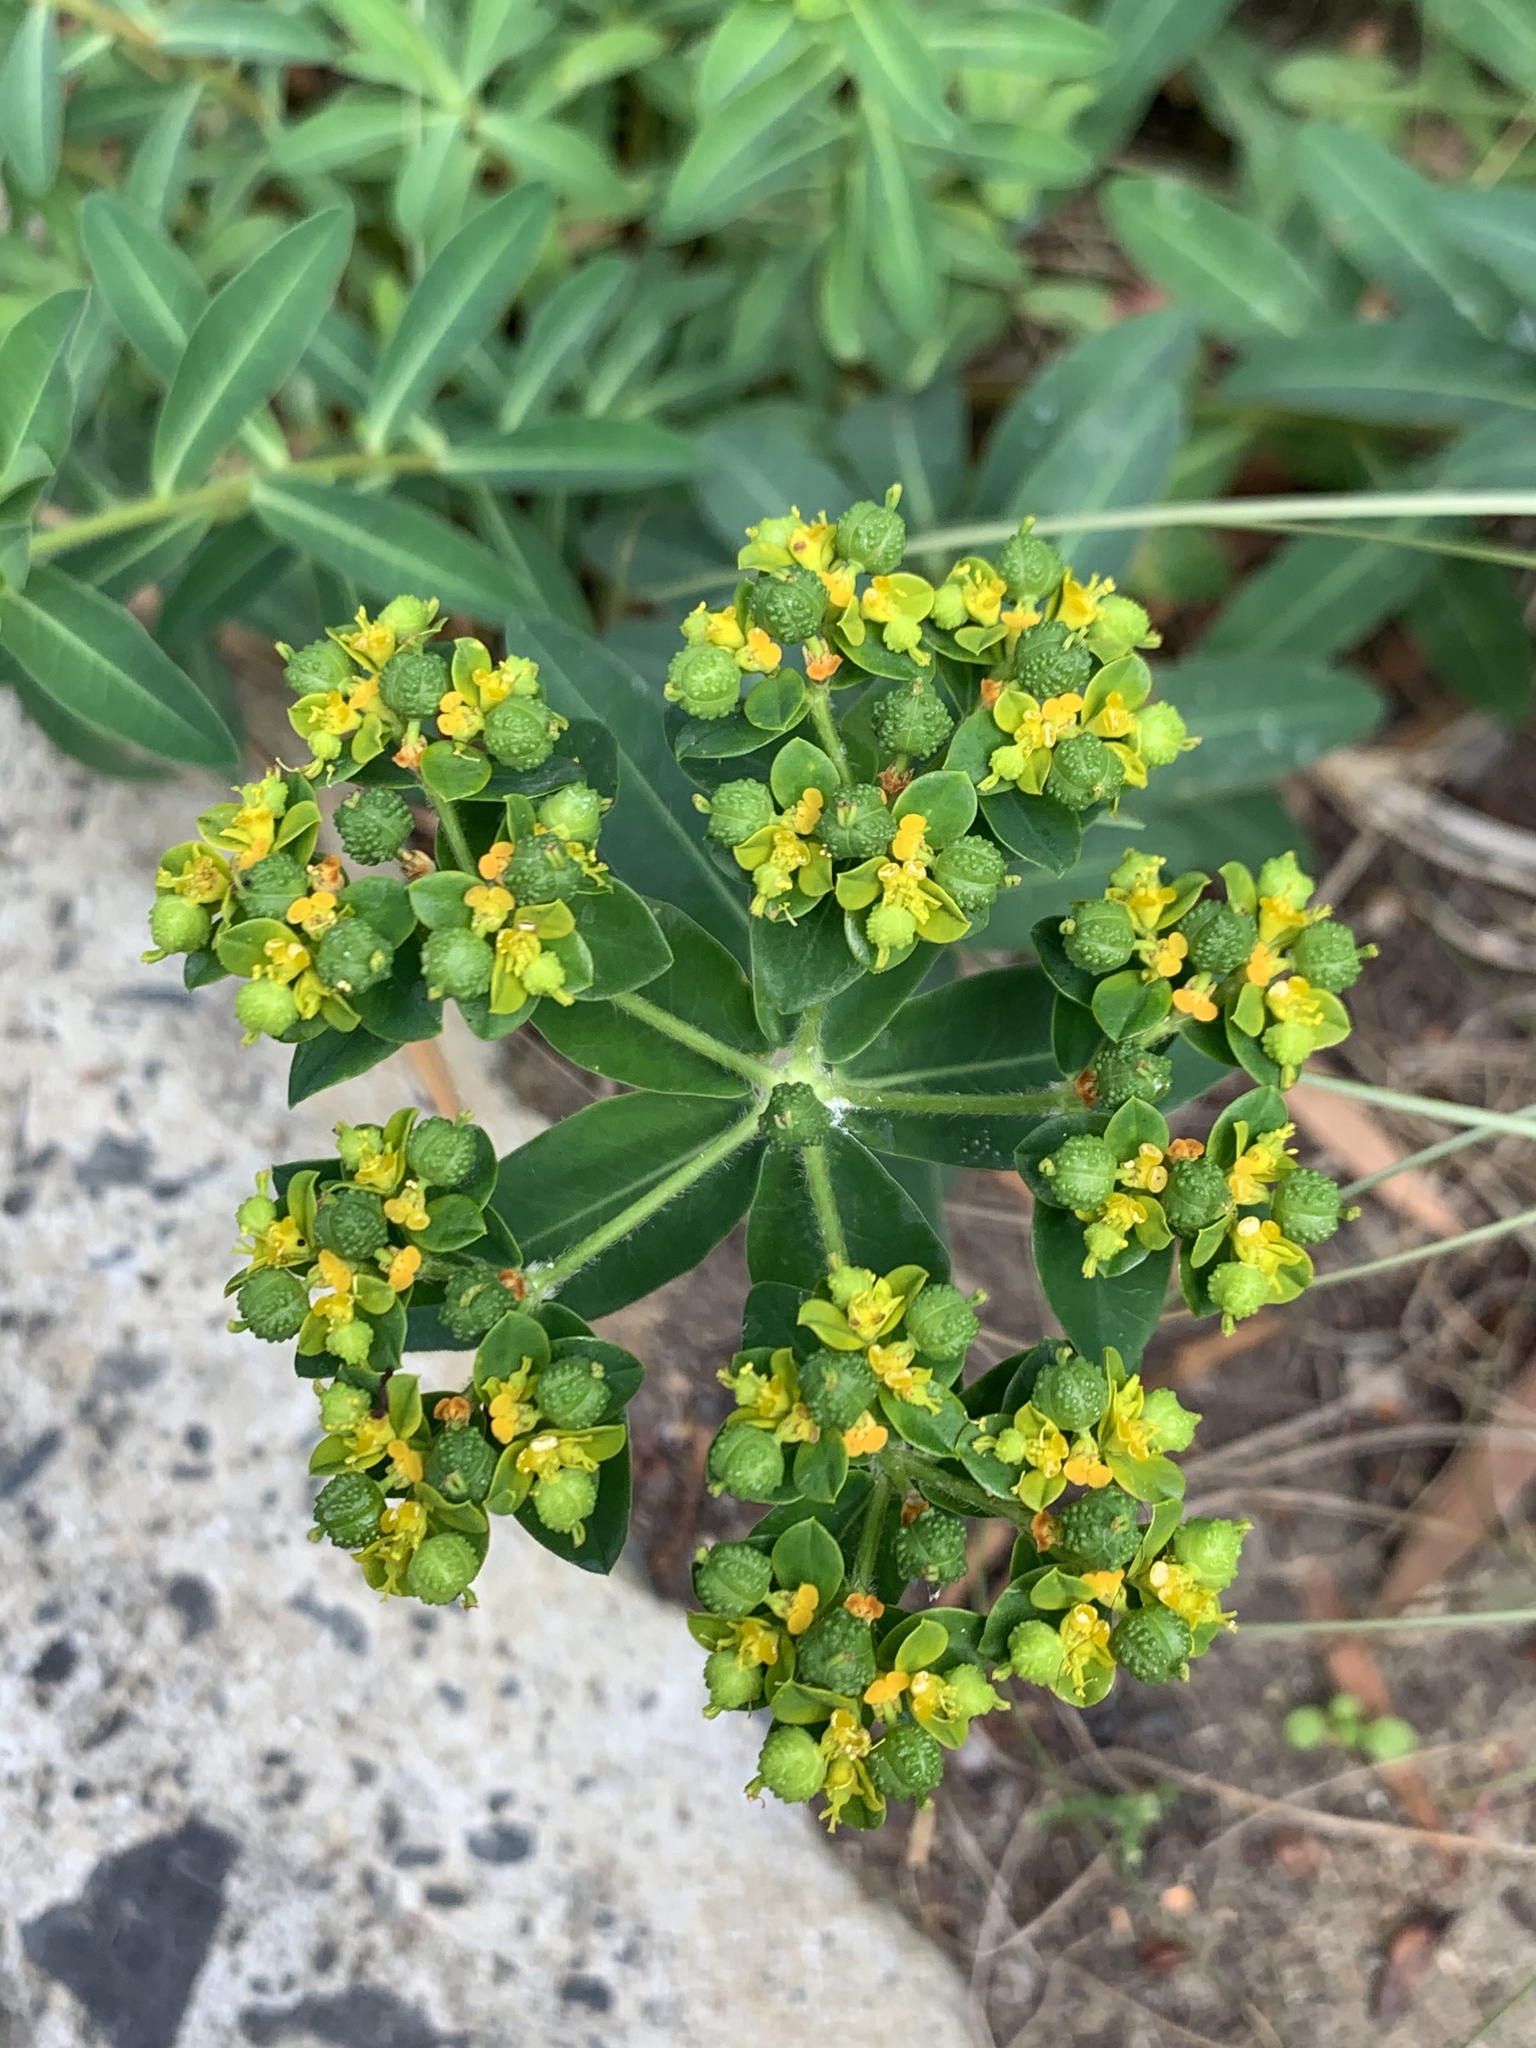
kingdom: Plantae
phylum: Tracheophyta
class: Magnoliopsida
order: Malpighiales
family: Euphorbiaceae
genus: Euphorbia
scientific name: Euphorbia oblongata
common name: Balkan spurge
